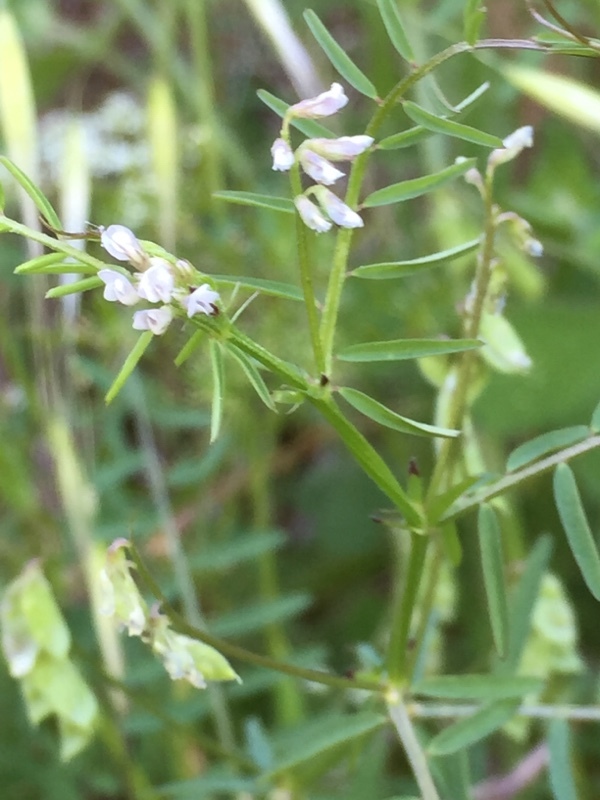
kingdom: Plantae
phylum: Tracheophyta
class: Magnoliopsida
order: Fabales
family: Fabaceae
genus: Vicia
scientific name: Vicia hirsuta
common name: Tiny vetch
